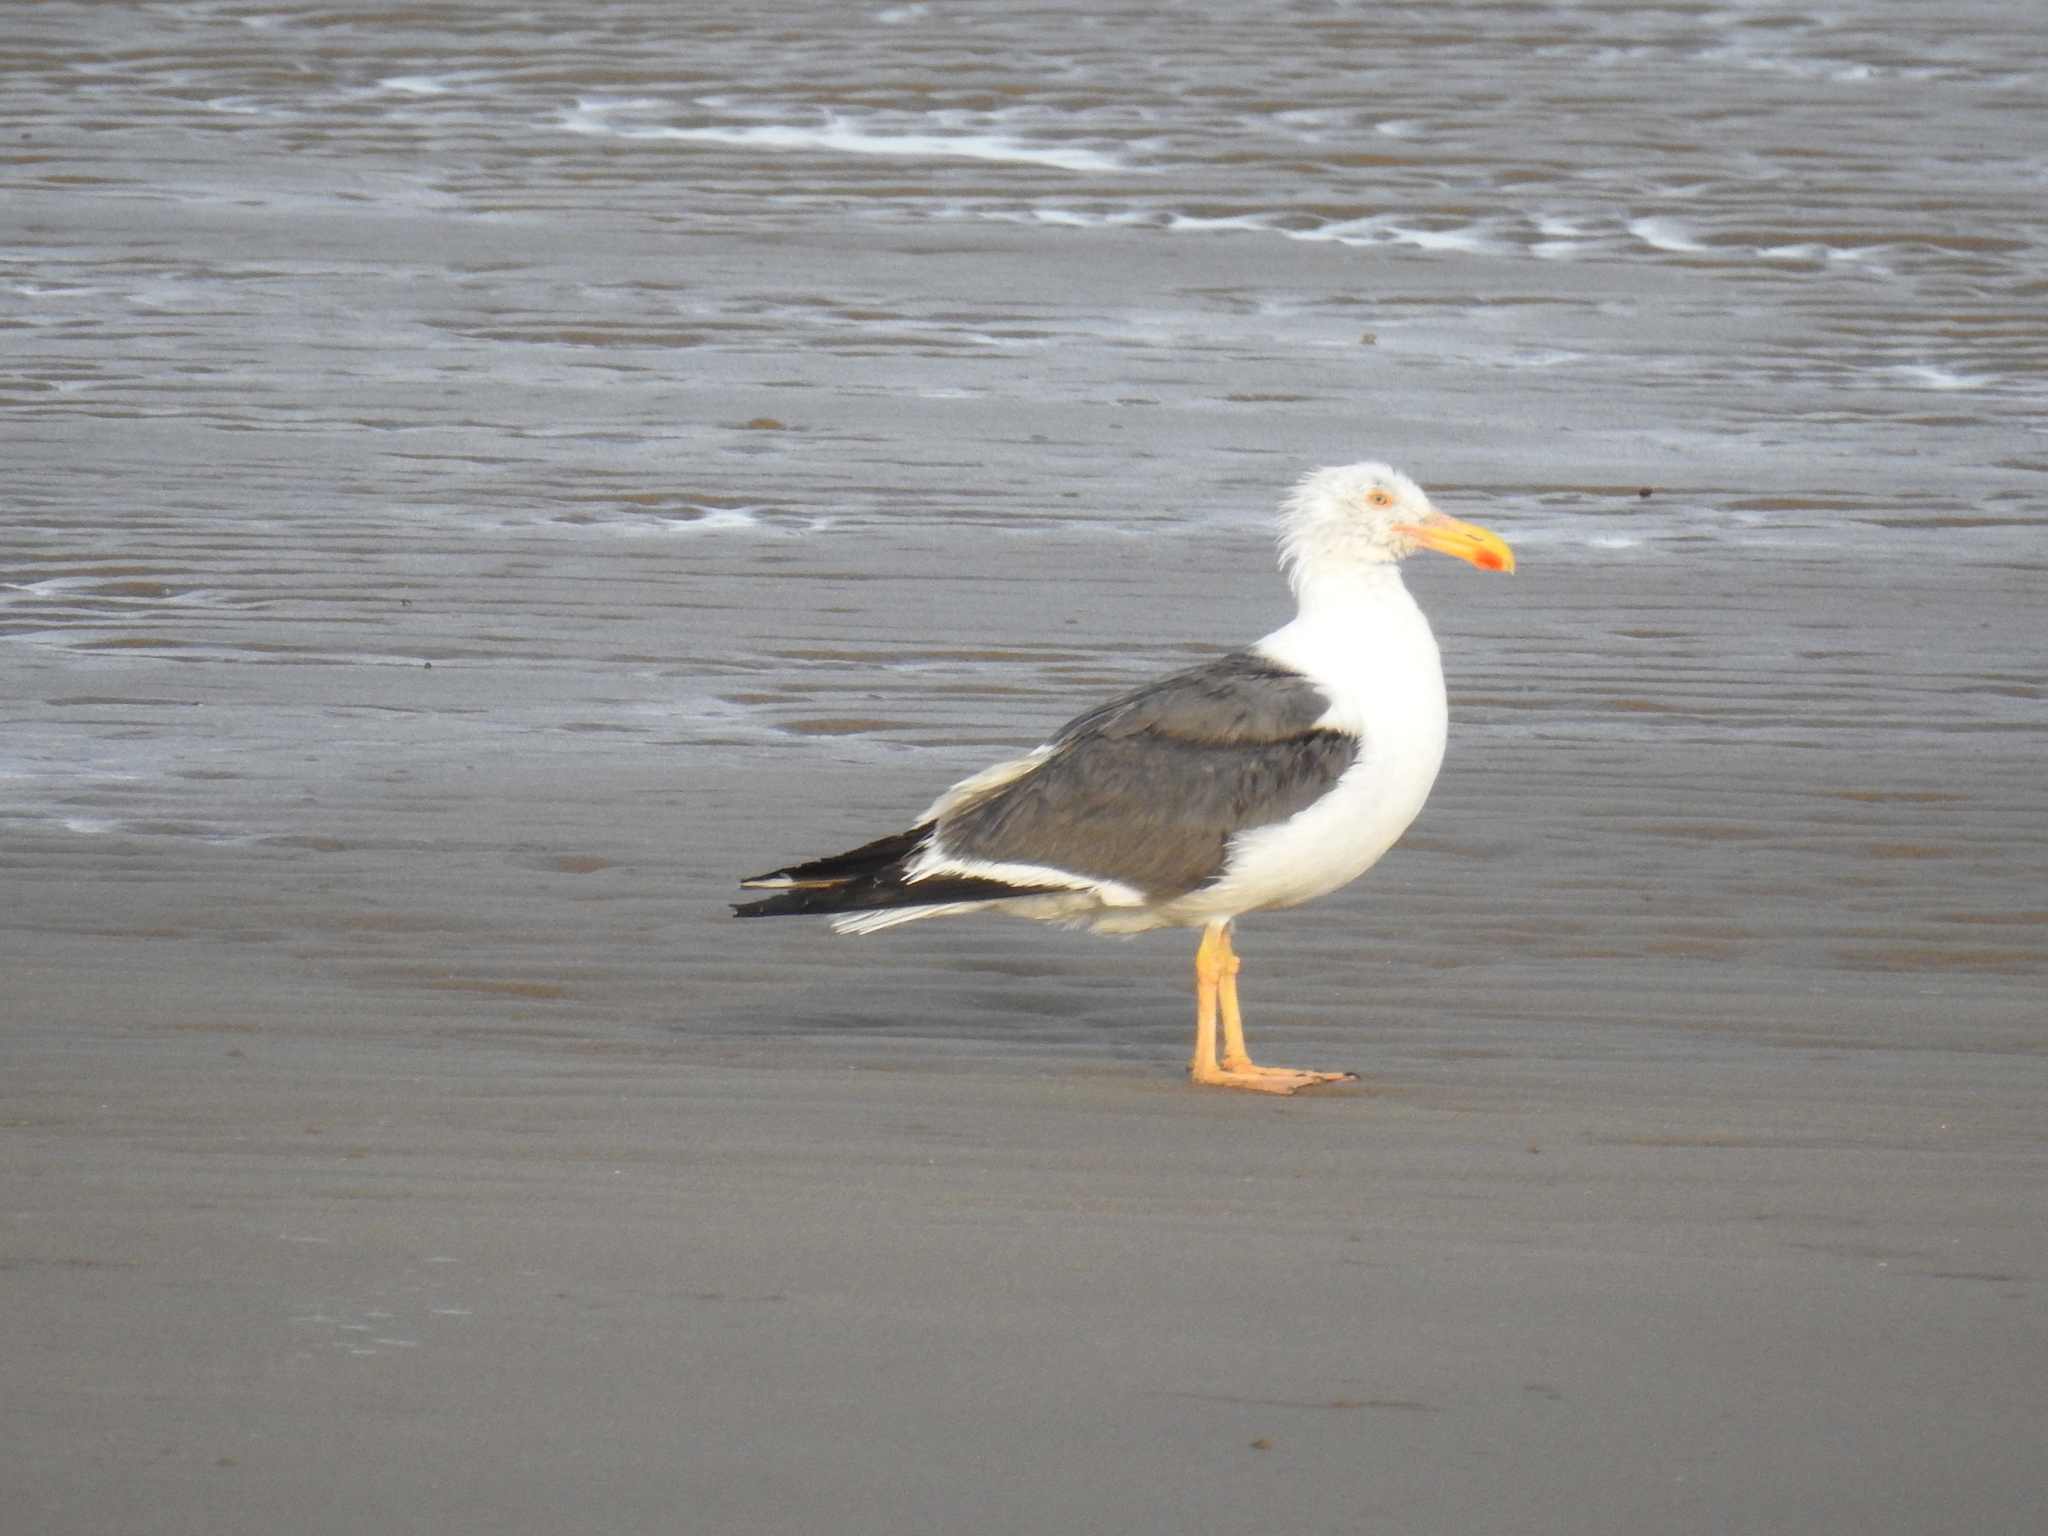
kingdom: Animalia
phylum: Chordata
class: Aves
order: Charadriiformes
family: Laridae
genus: Larus
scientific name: Larus livens
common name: Yellow-footed gull
